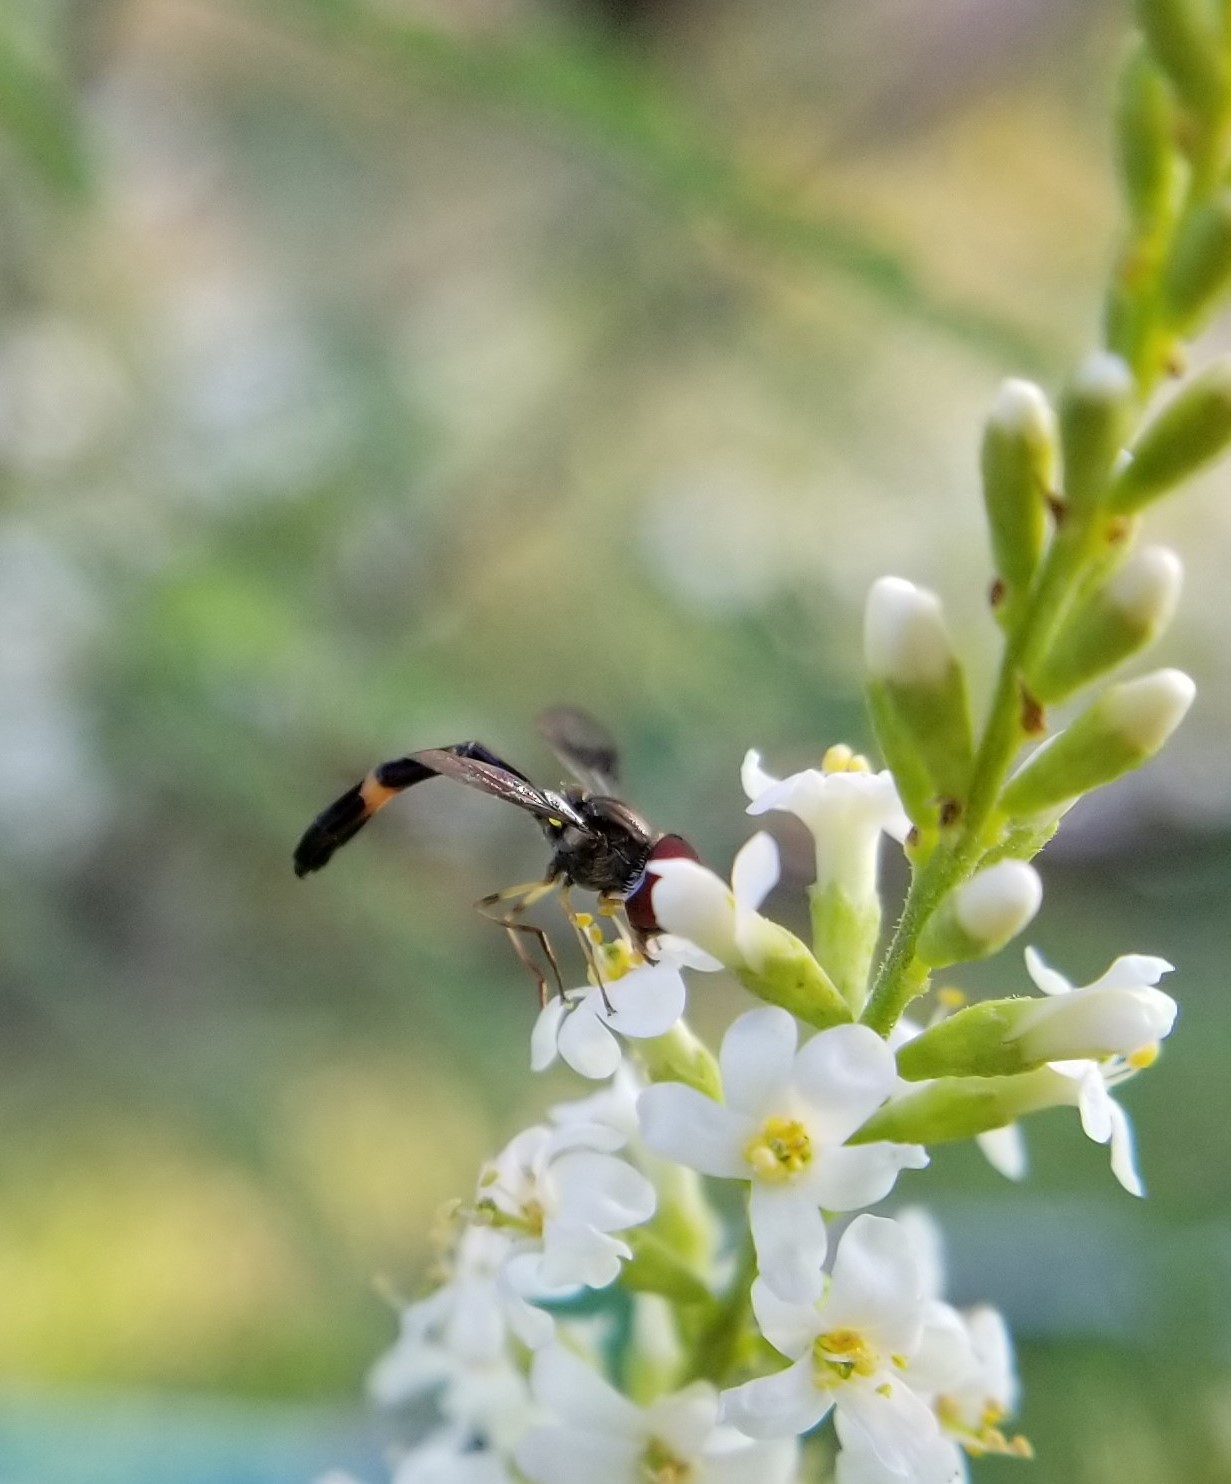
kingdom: Animalia
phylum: Arthropoda
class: Insecta
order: Diptera
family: Syrphidae
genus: Hypocritanus
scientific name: Hypocritanus fascipennis
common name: Eastern band-winged hover fly
